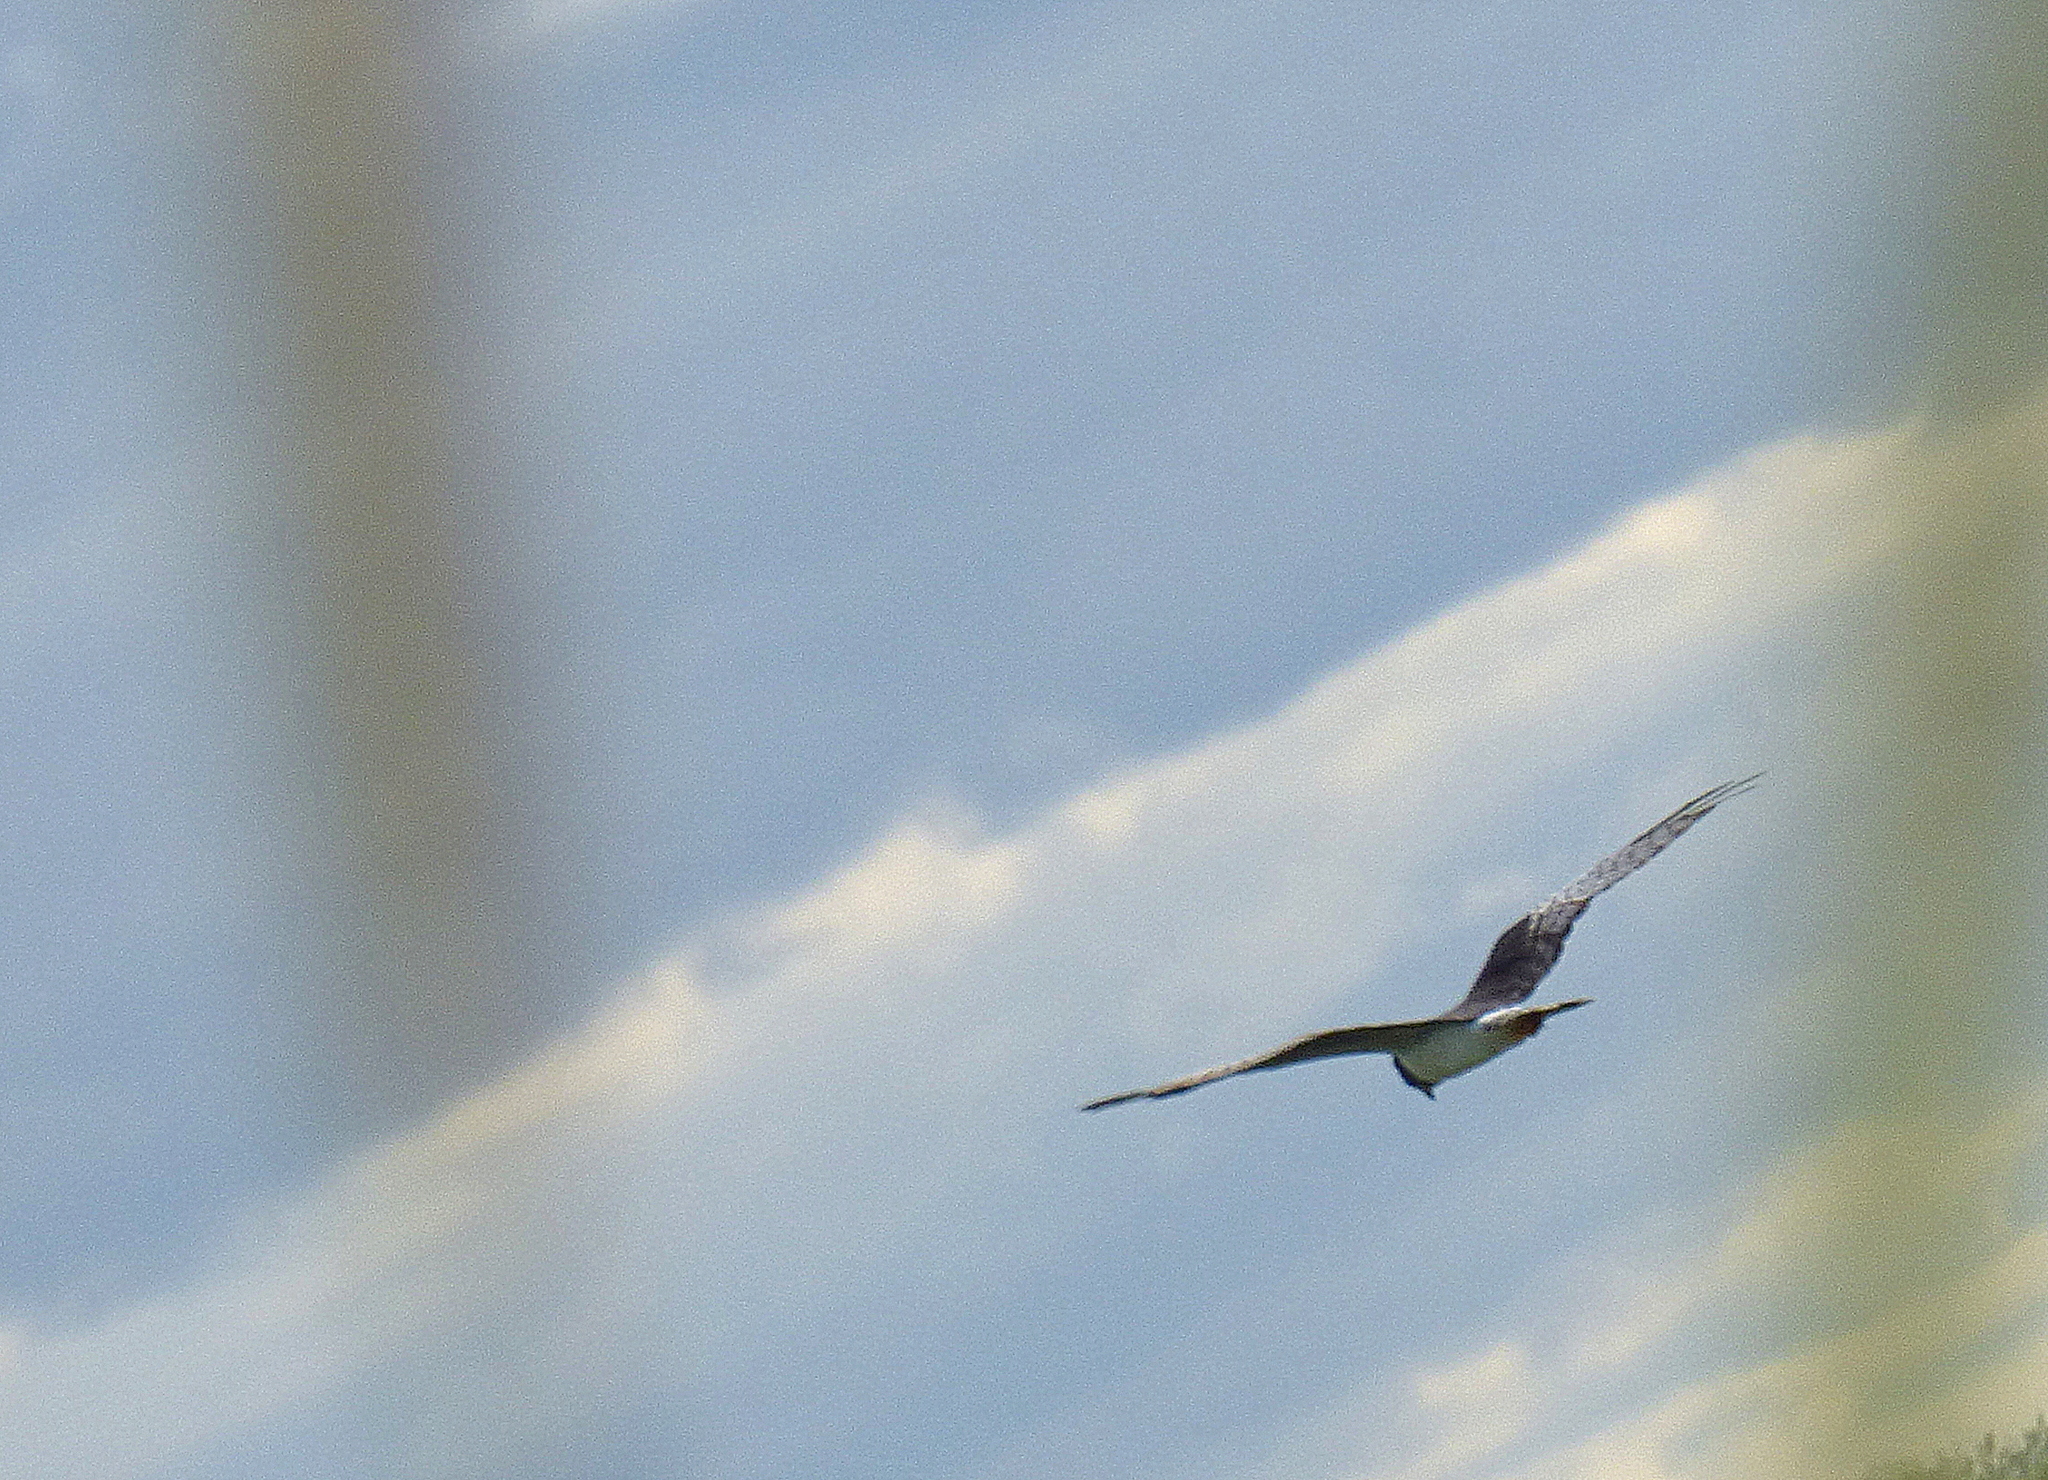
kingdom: Animalia
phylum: Chordata
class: Aves
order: Accipitriformes
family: Accipitridae
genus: Circus
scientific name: Circus buffoni
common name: Long-winged harrier
